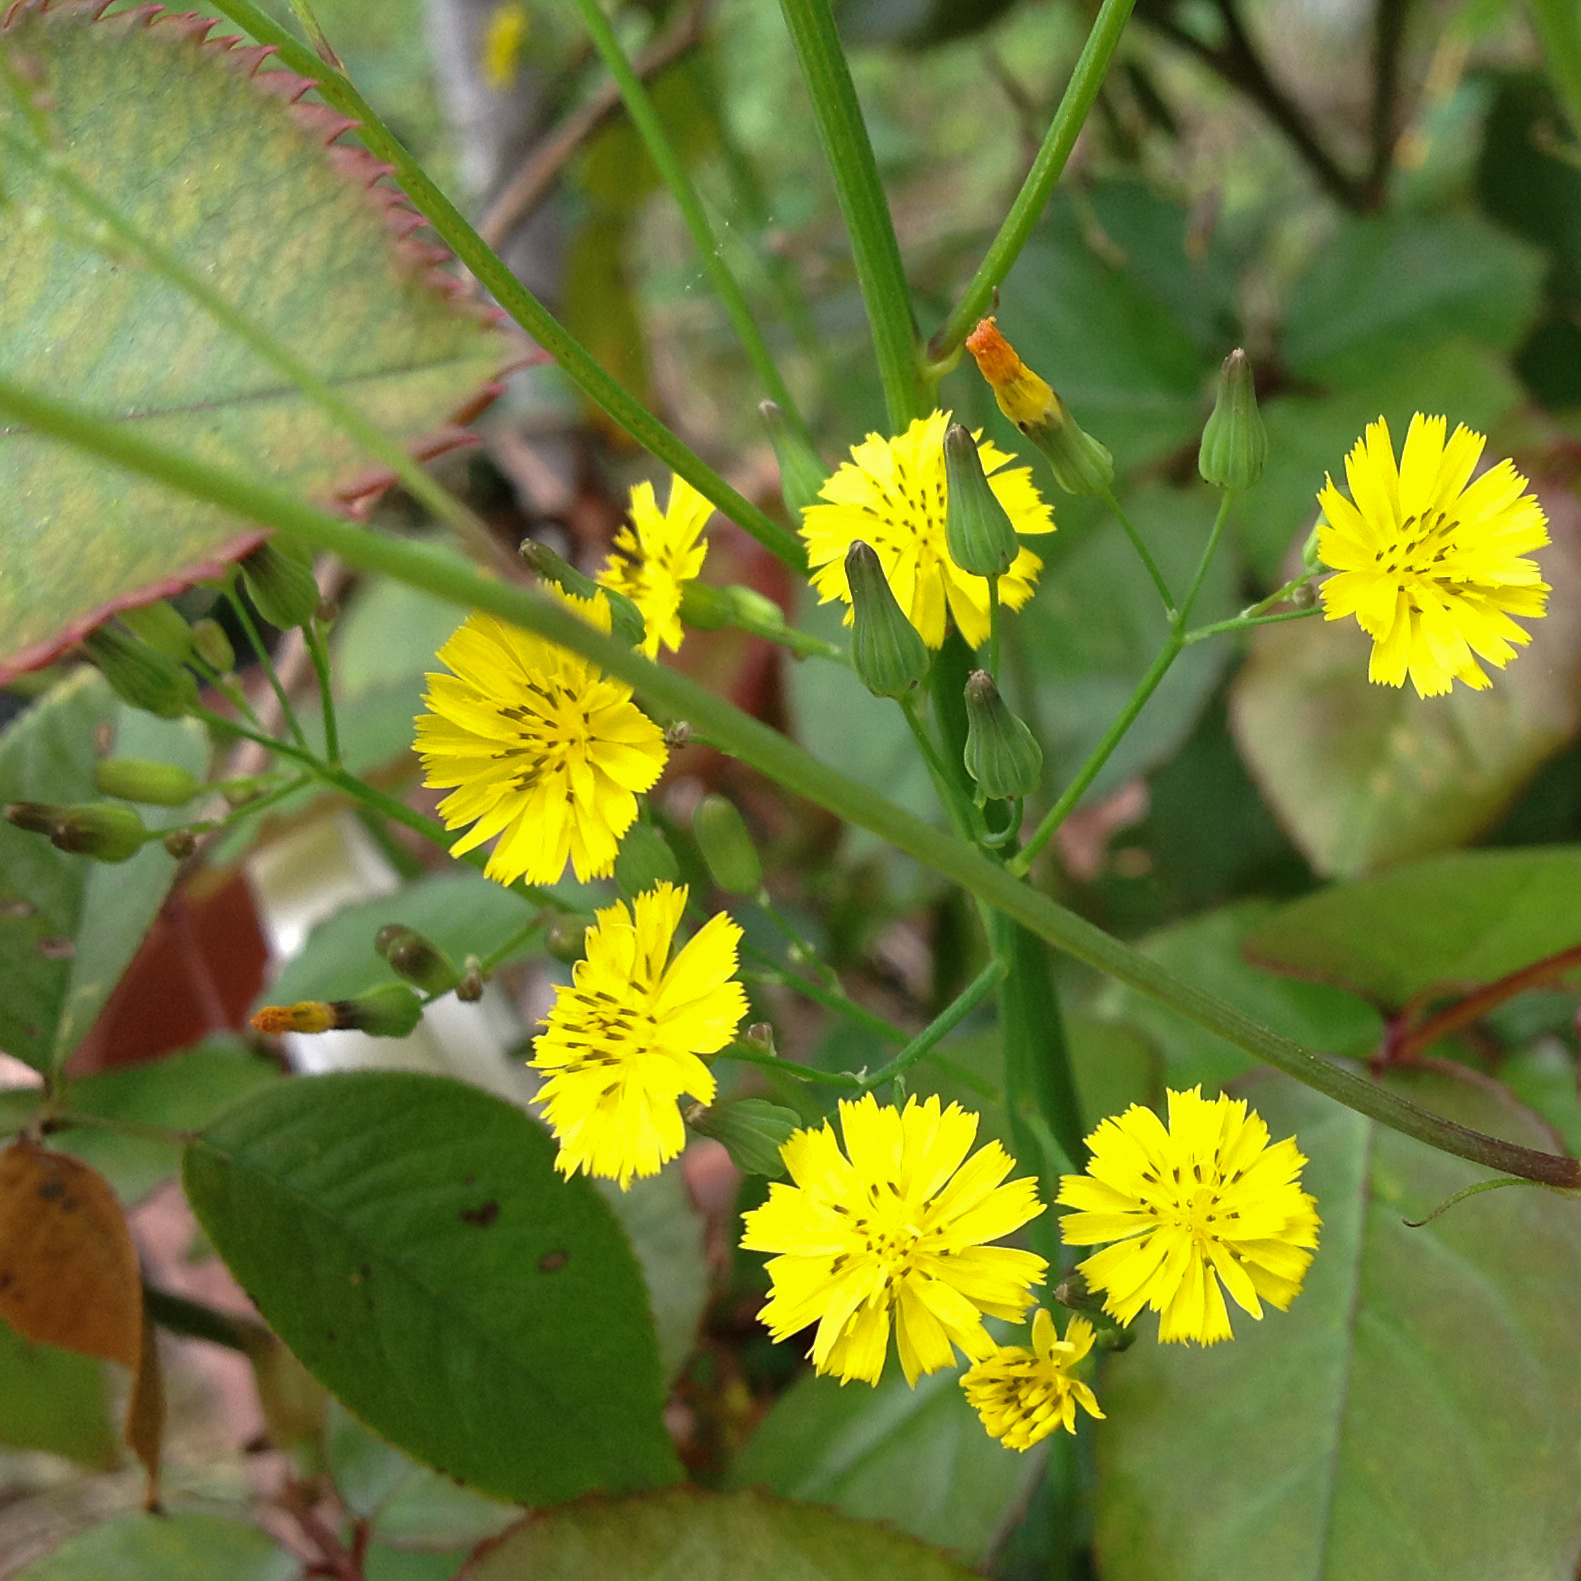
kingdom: Plantae
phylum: Tracheophyta
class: Magnoliopsida
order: Asterales
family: Asteraceae
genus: Youngia
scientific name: Youngia japonica
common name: Oriental false hawksbeard
